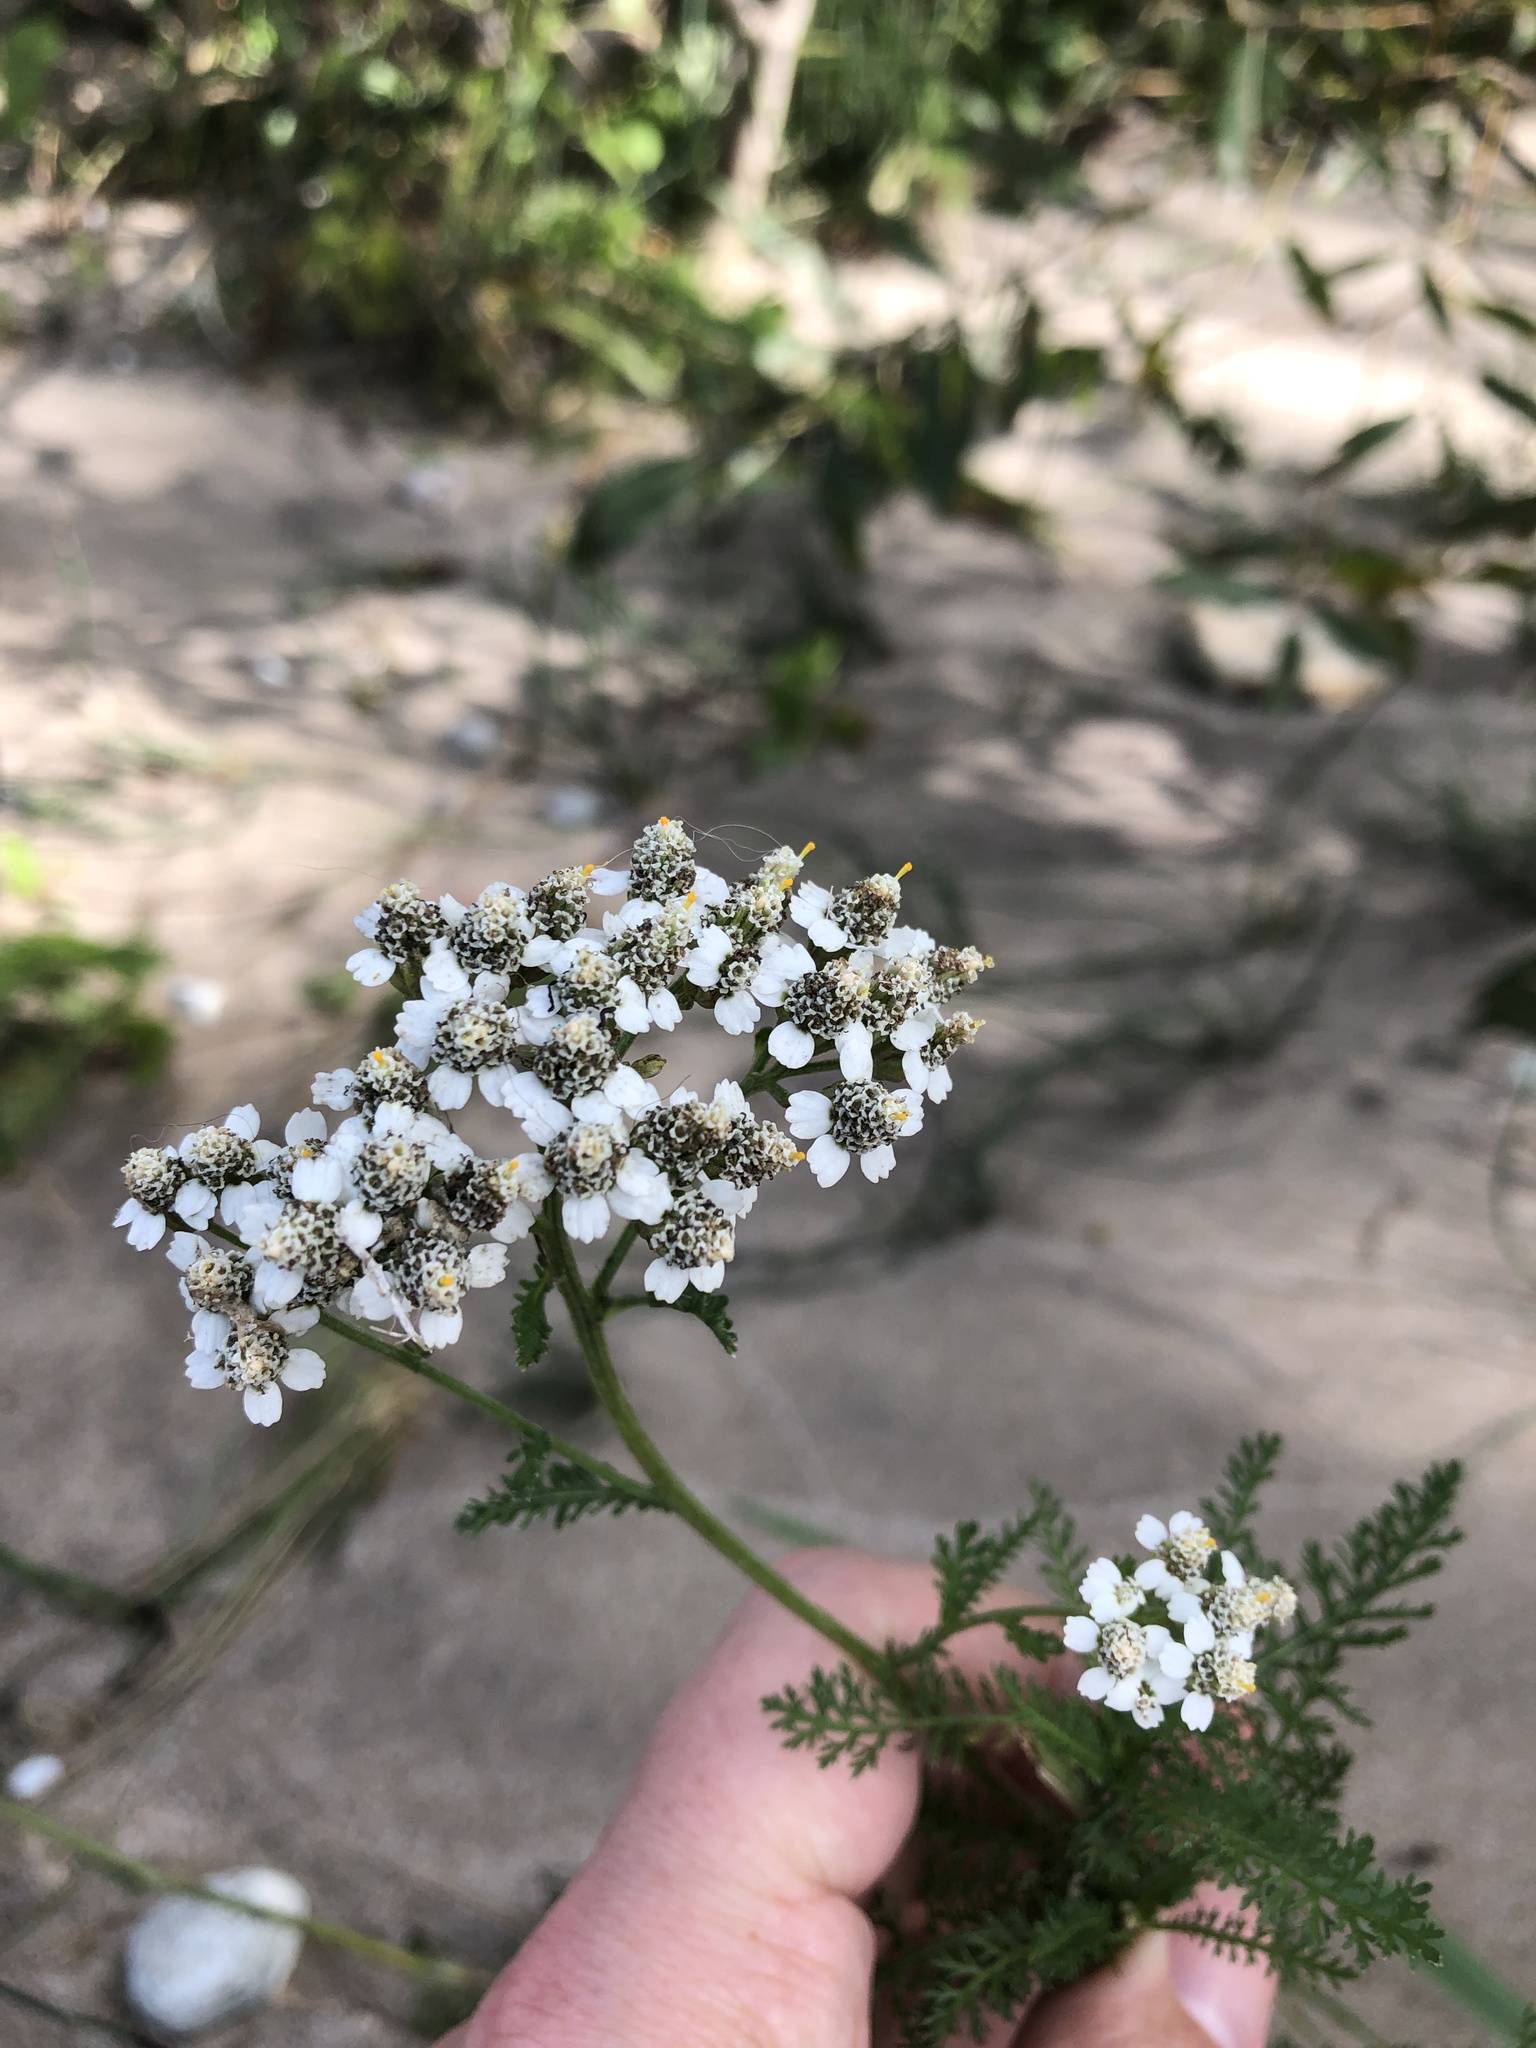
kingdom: Plantae
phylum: Tracheophyta
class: Magnoliopsida
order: Asterales
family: Asteraceae
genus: Achillea
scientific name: Achillea millefolium
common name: Yarrow
